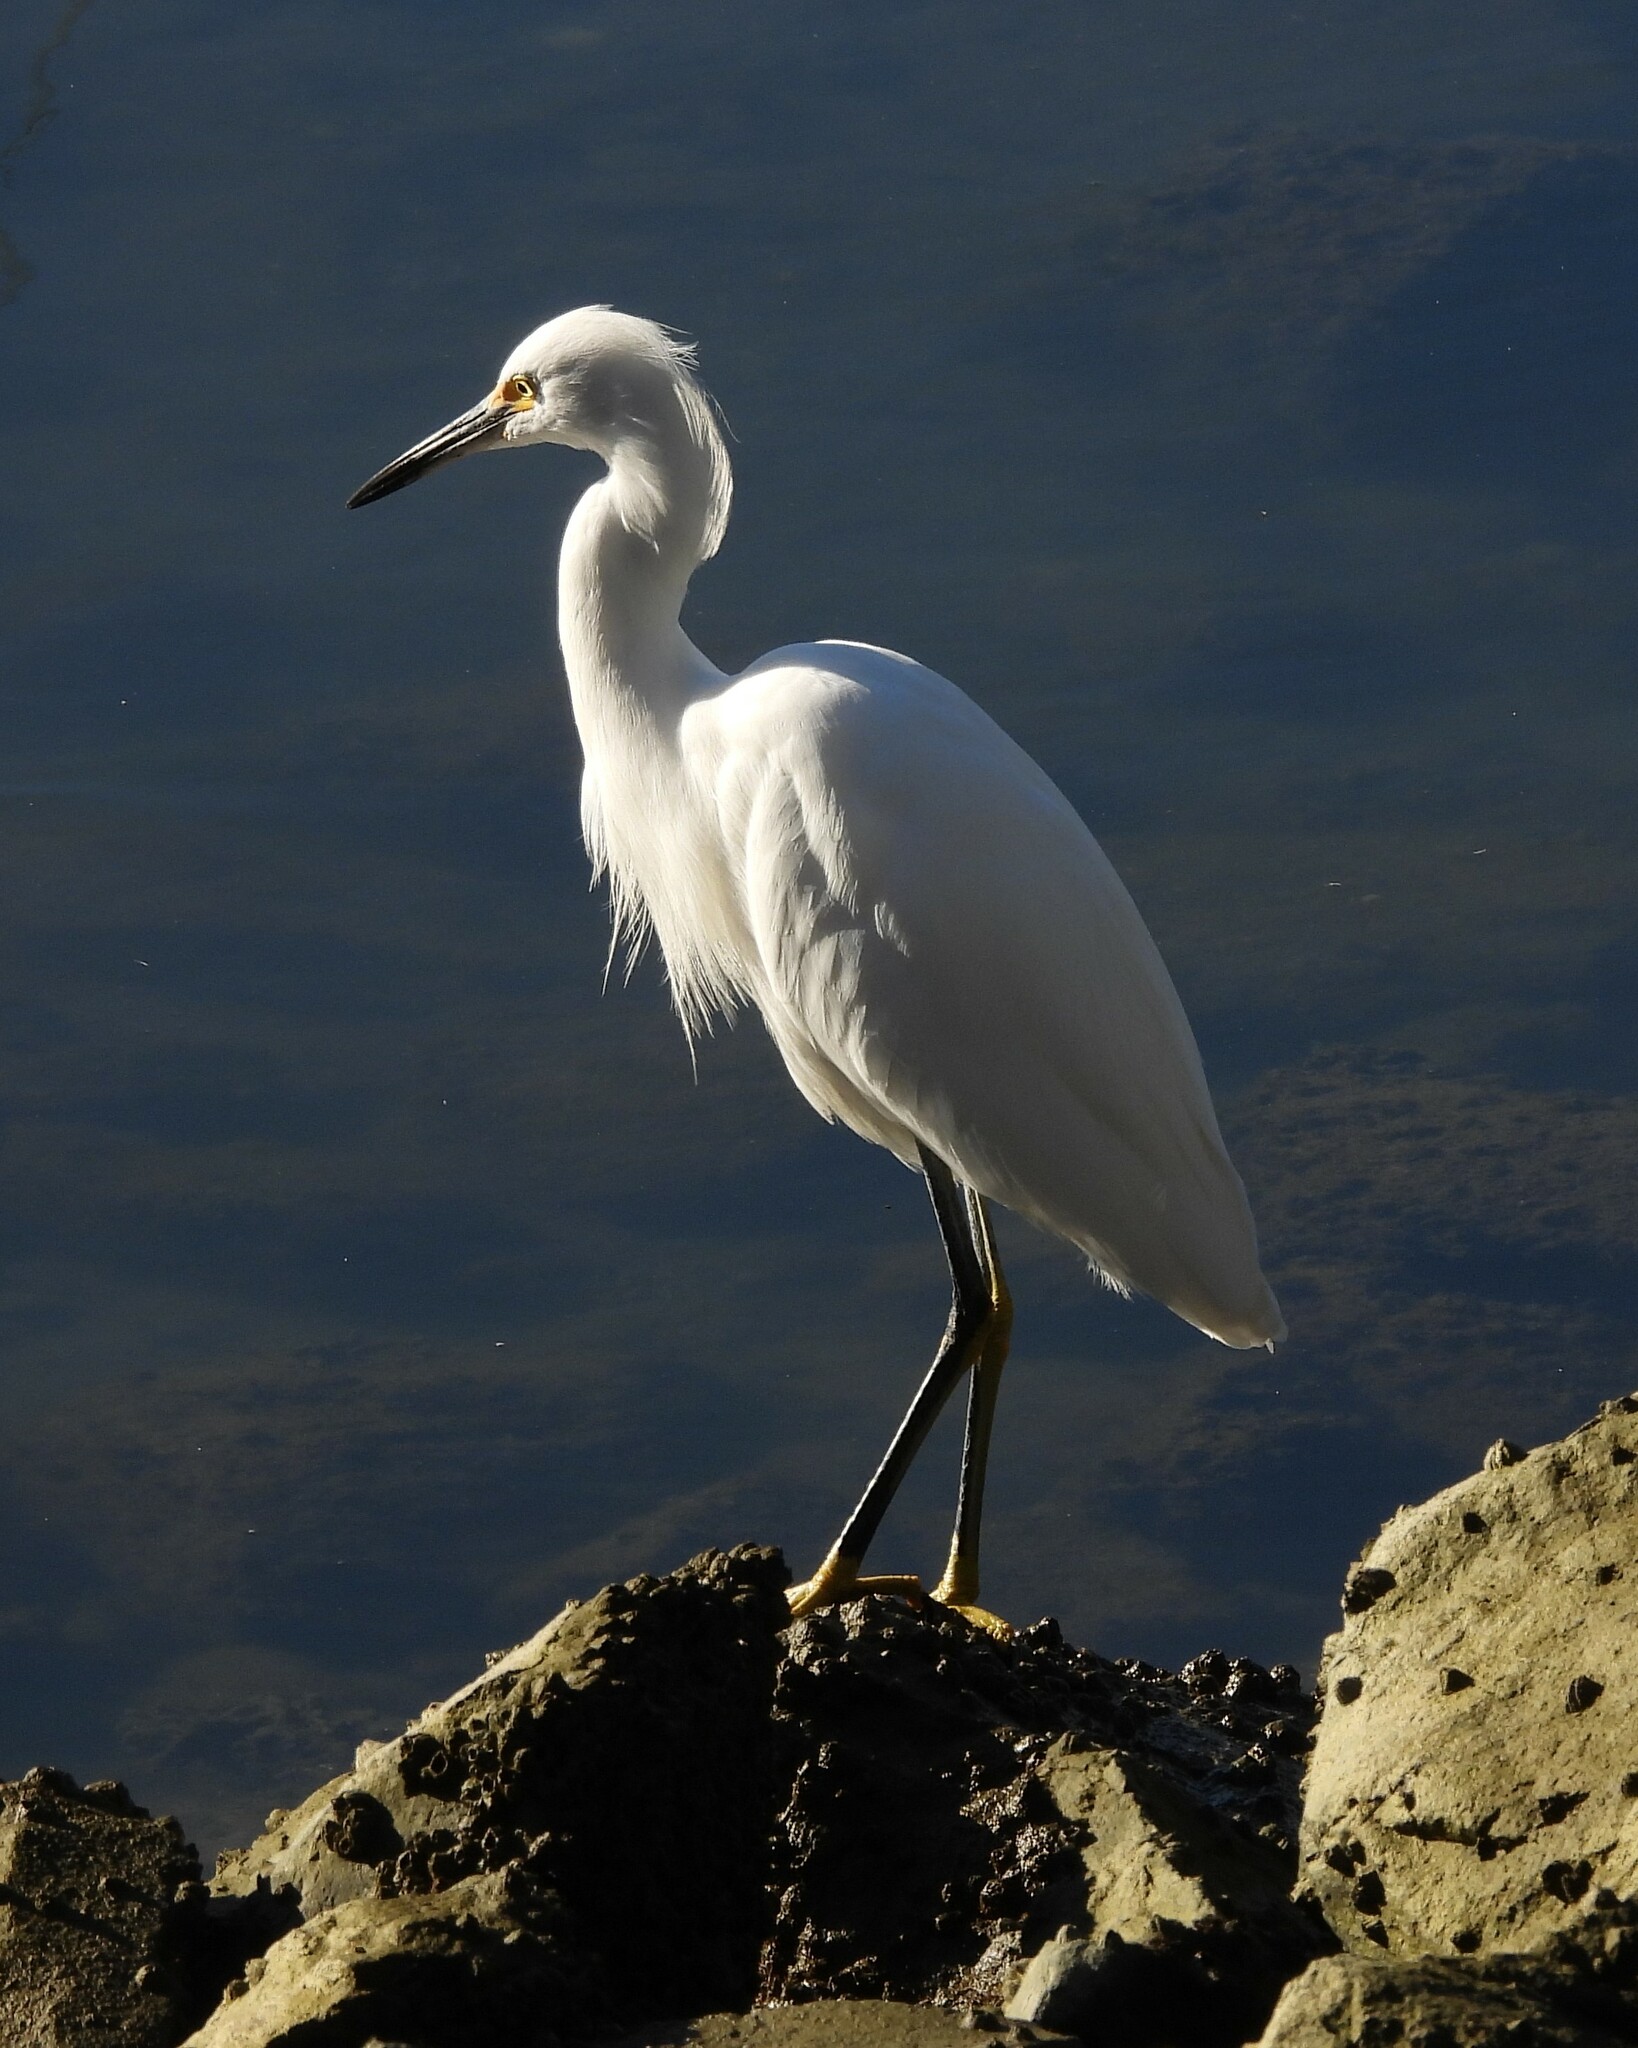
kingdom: Animalia
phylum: Chordata
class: Aves
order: Pelecaniformes
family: Ardeidae
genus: Egretta
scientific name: Egretta thula
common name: Snowy egret
